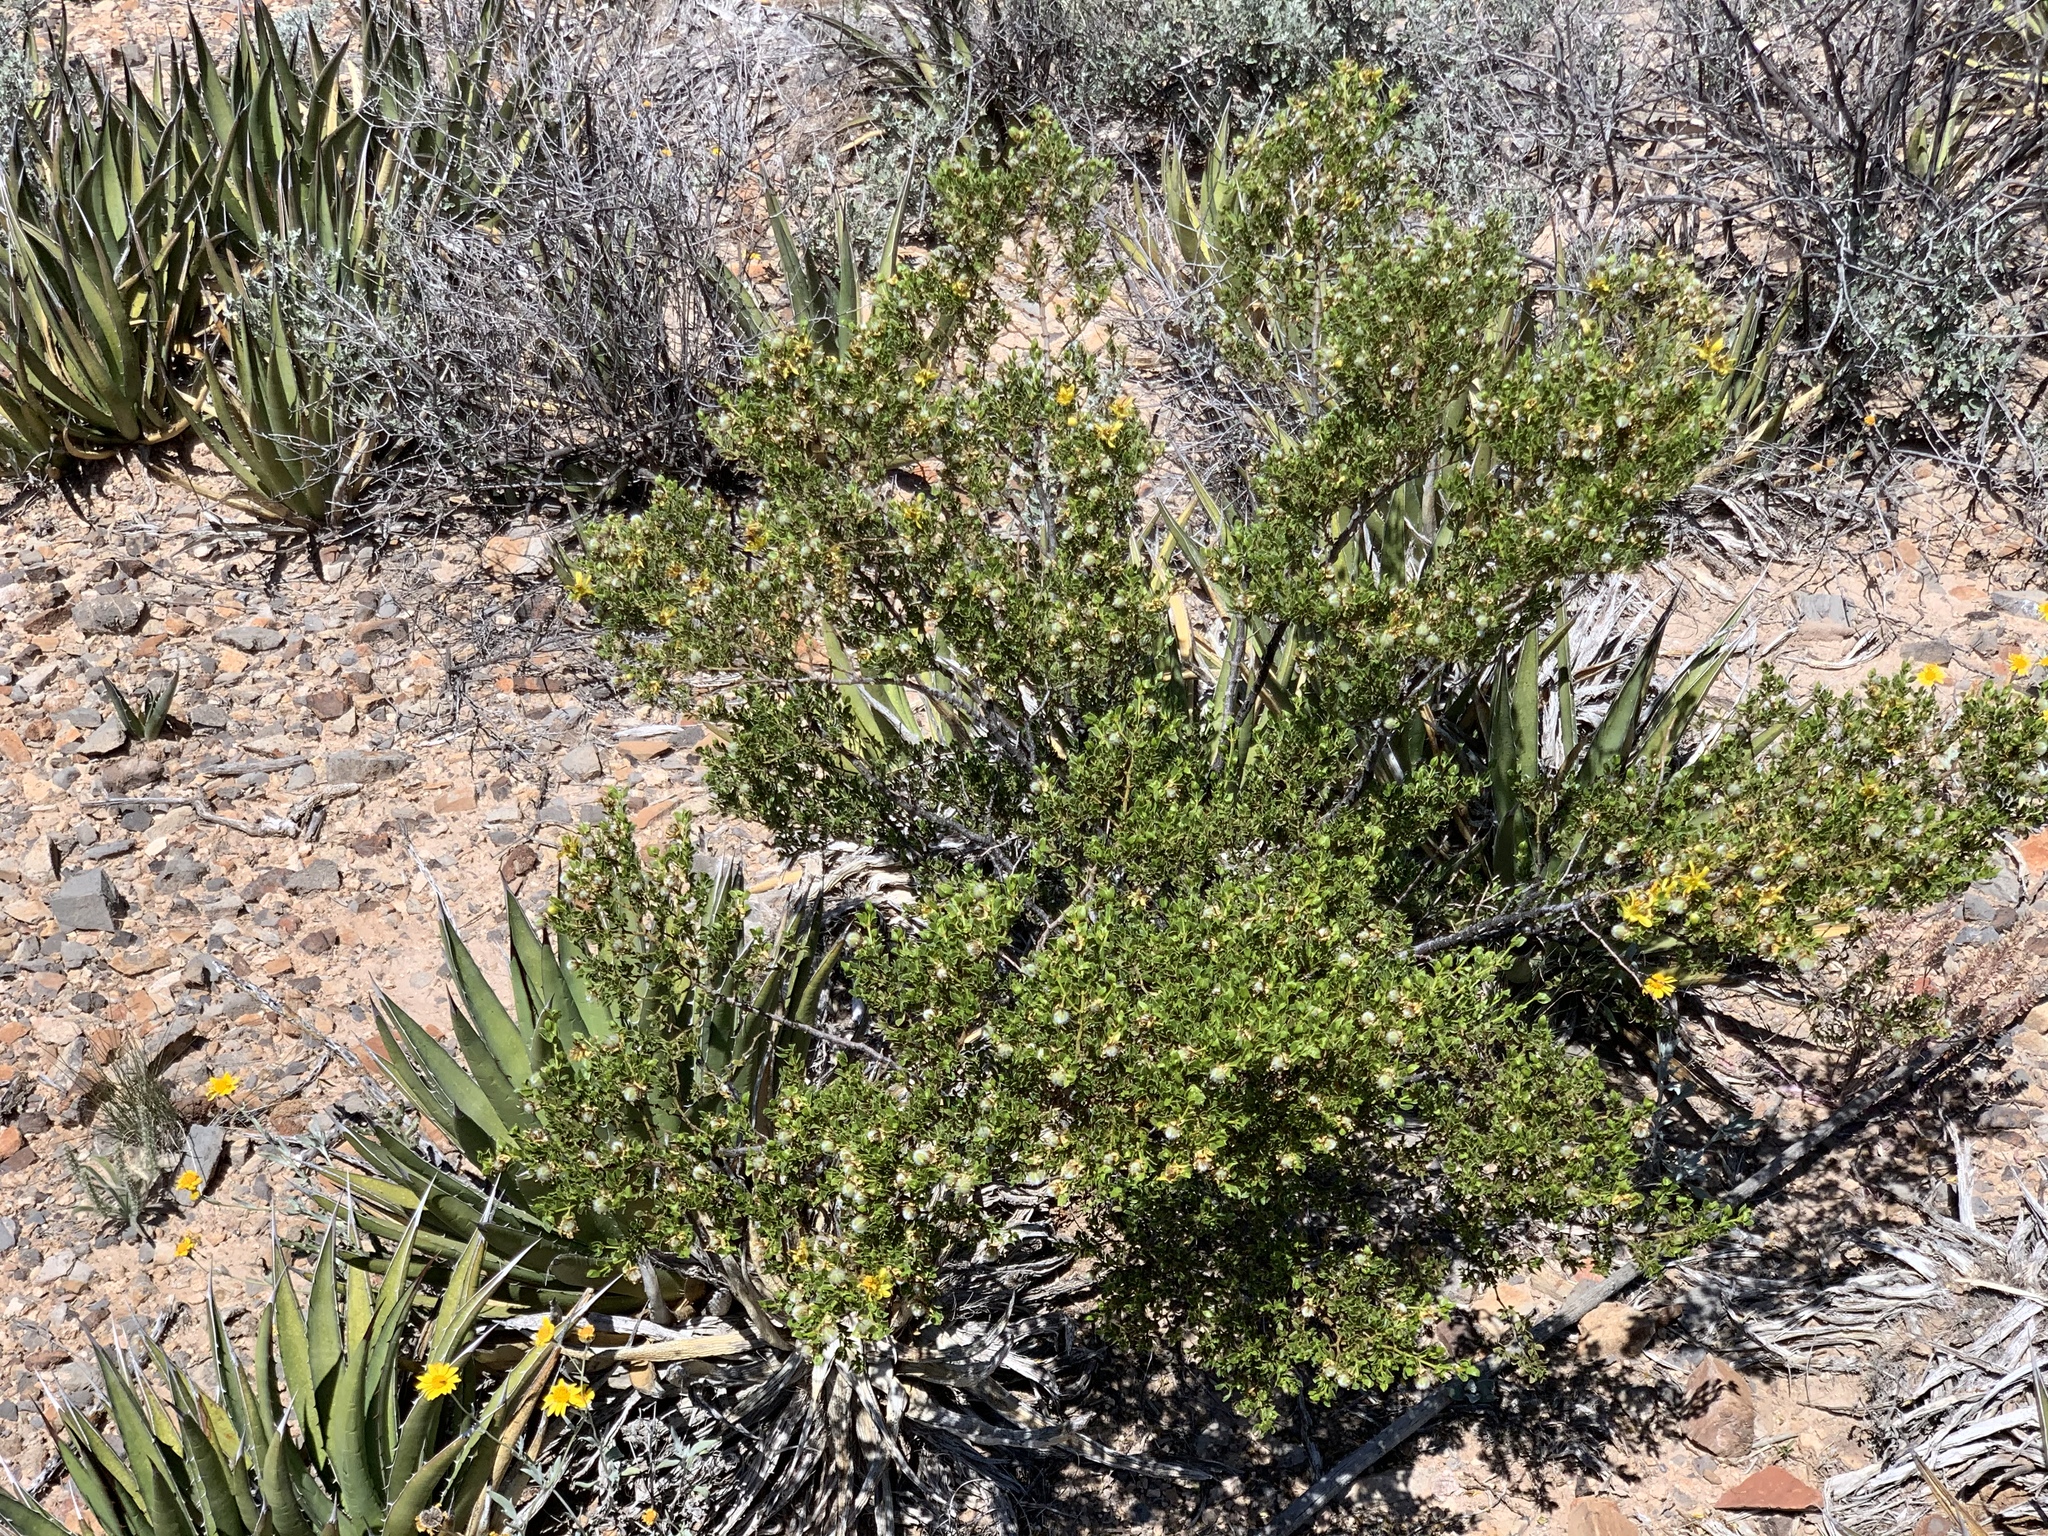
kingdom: Plantae
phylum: Tracheophyta
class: Magnoliopsida
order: Zygophyllales
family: Zygophyllaceae
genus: Larrea
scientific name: Larrea tridentata
